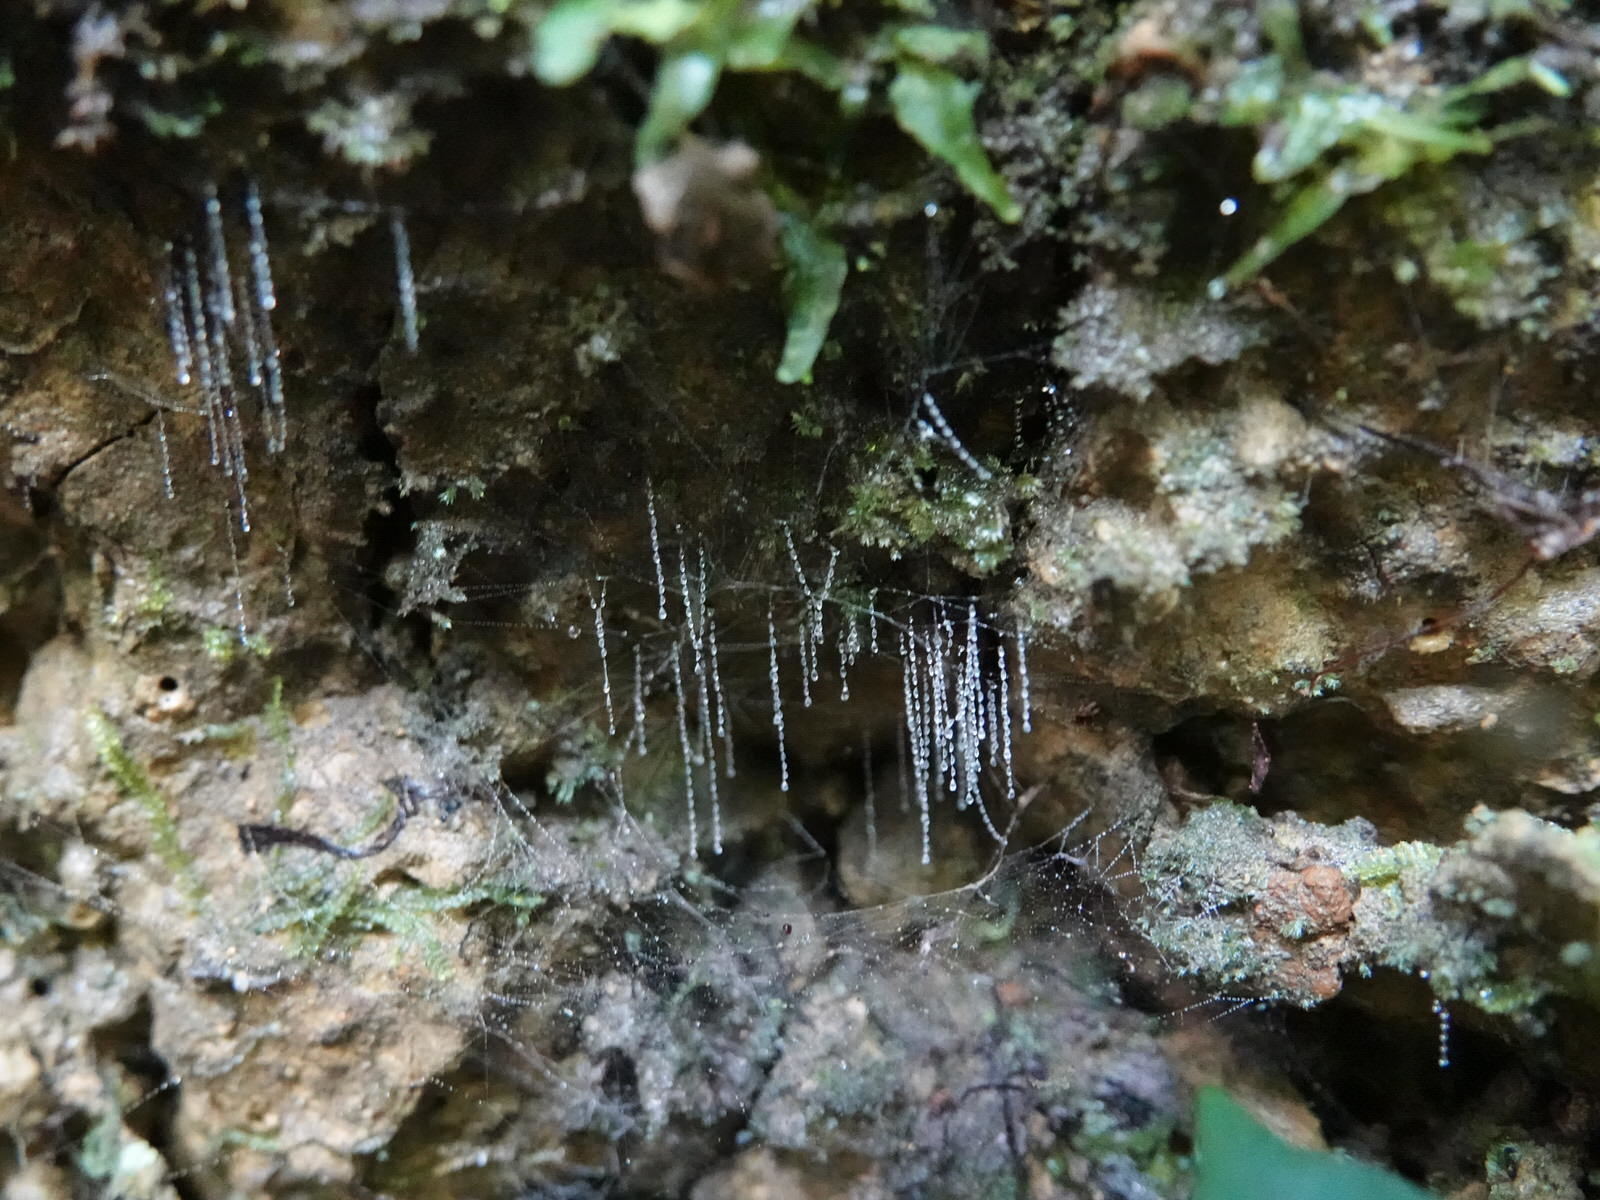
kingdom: Animalia
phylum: Arthropoda
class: Insecta
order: Diptera
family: Keroplatidae
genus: Arachnocampa
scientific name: Arachnocampa luminosa
